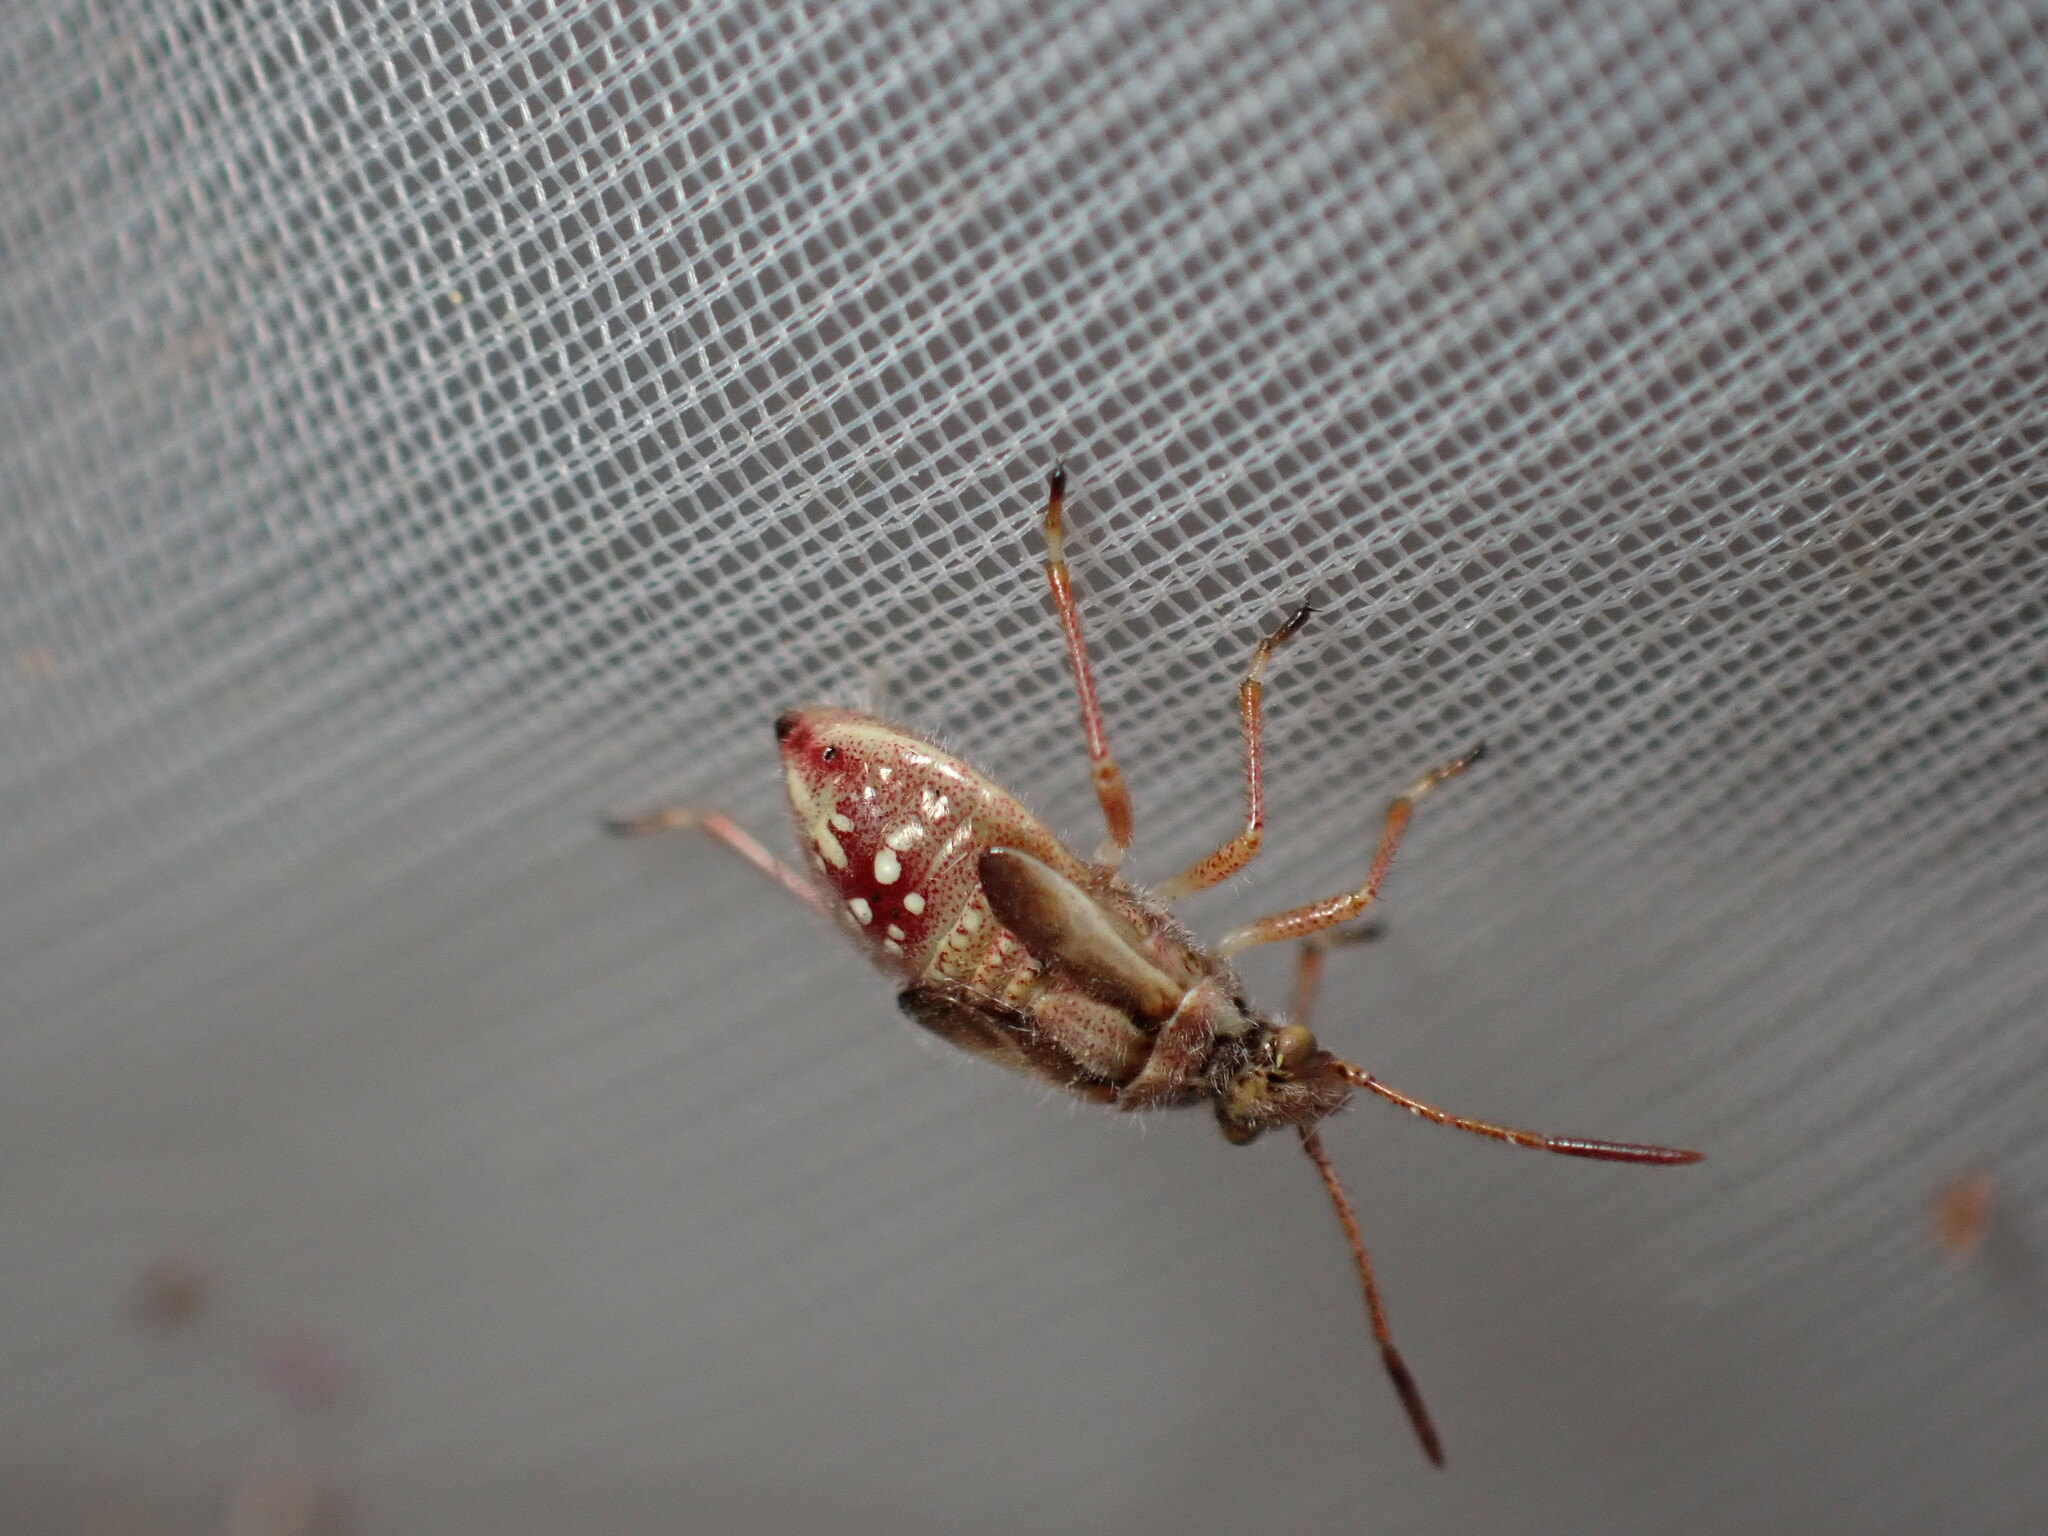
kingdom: Animalia
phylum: Arthropoda
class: Insecta
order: Hemiptera
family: Rhopalidae
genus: Liorhyssus
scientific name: Liorhyssus hyalinus
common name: Scentless plant bug
